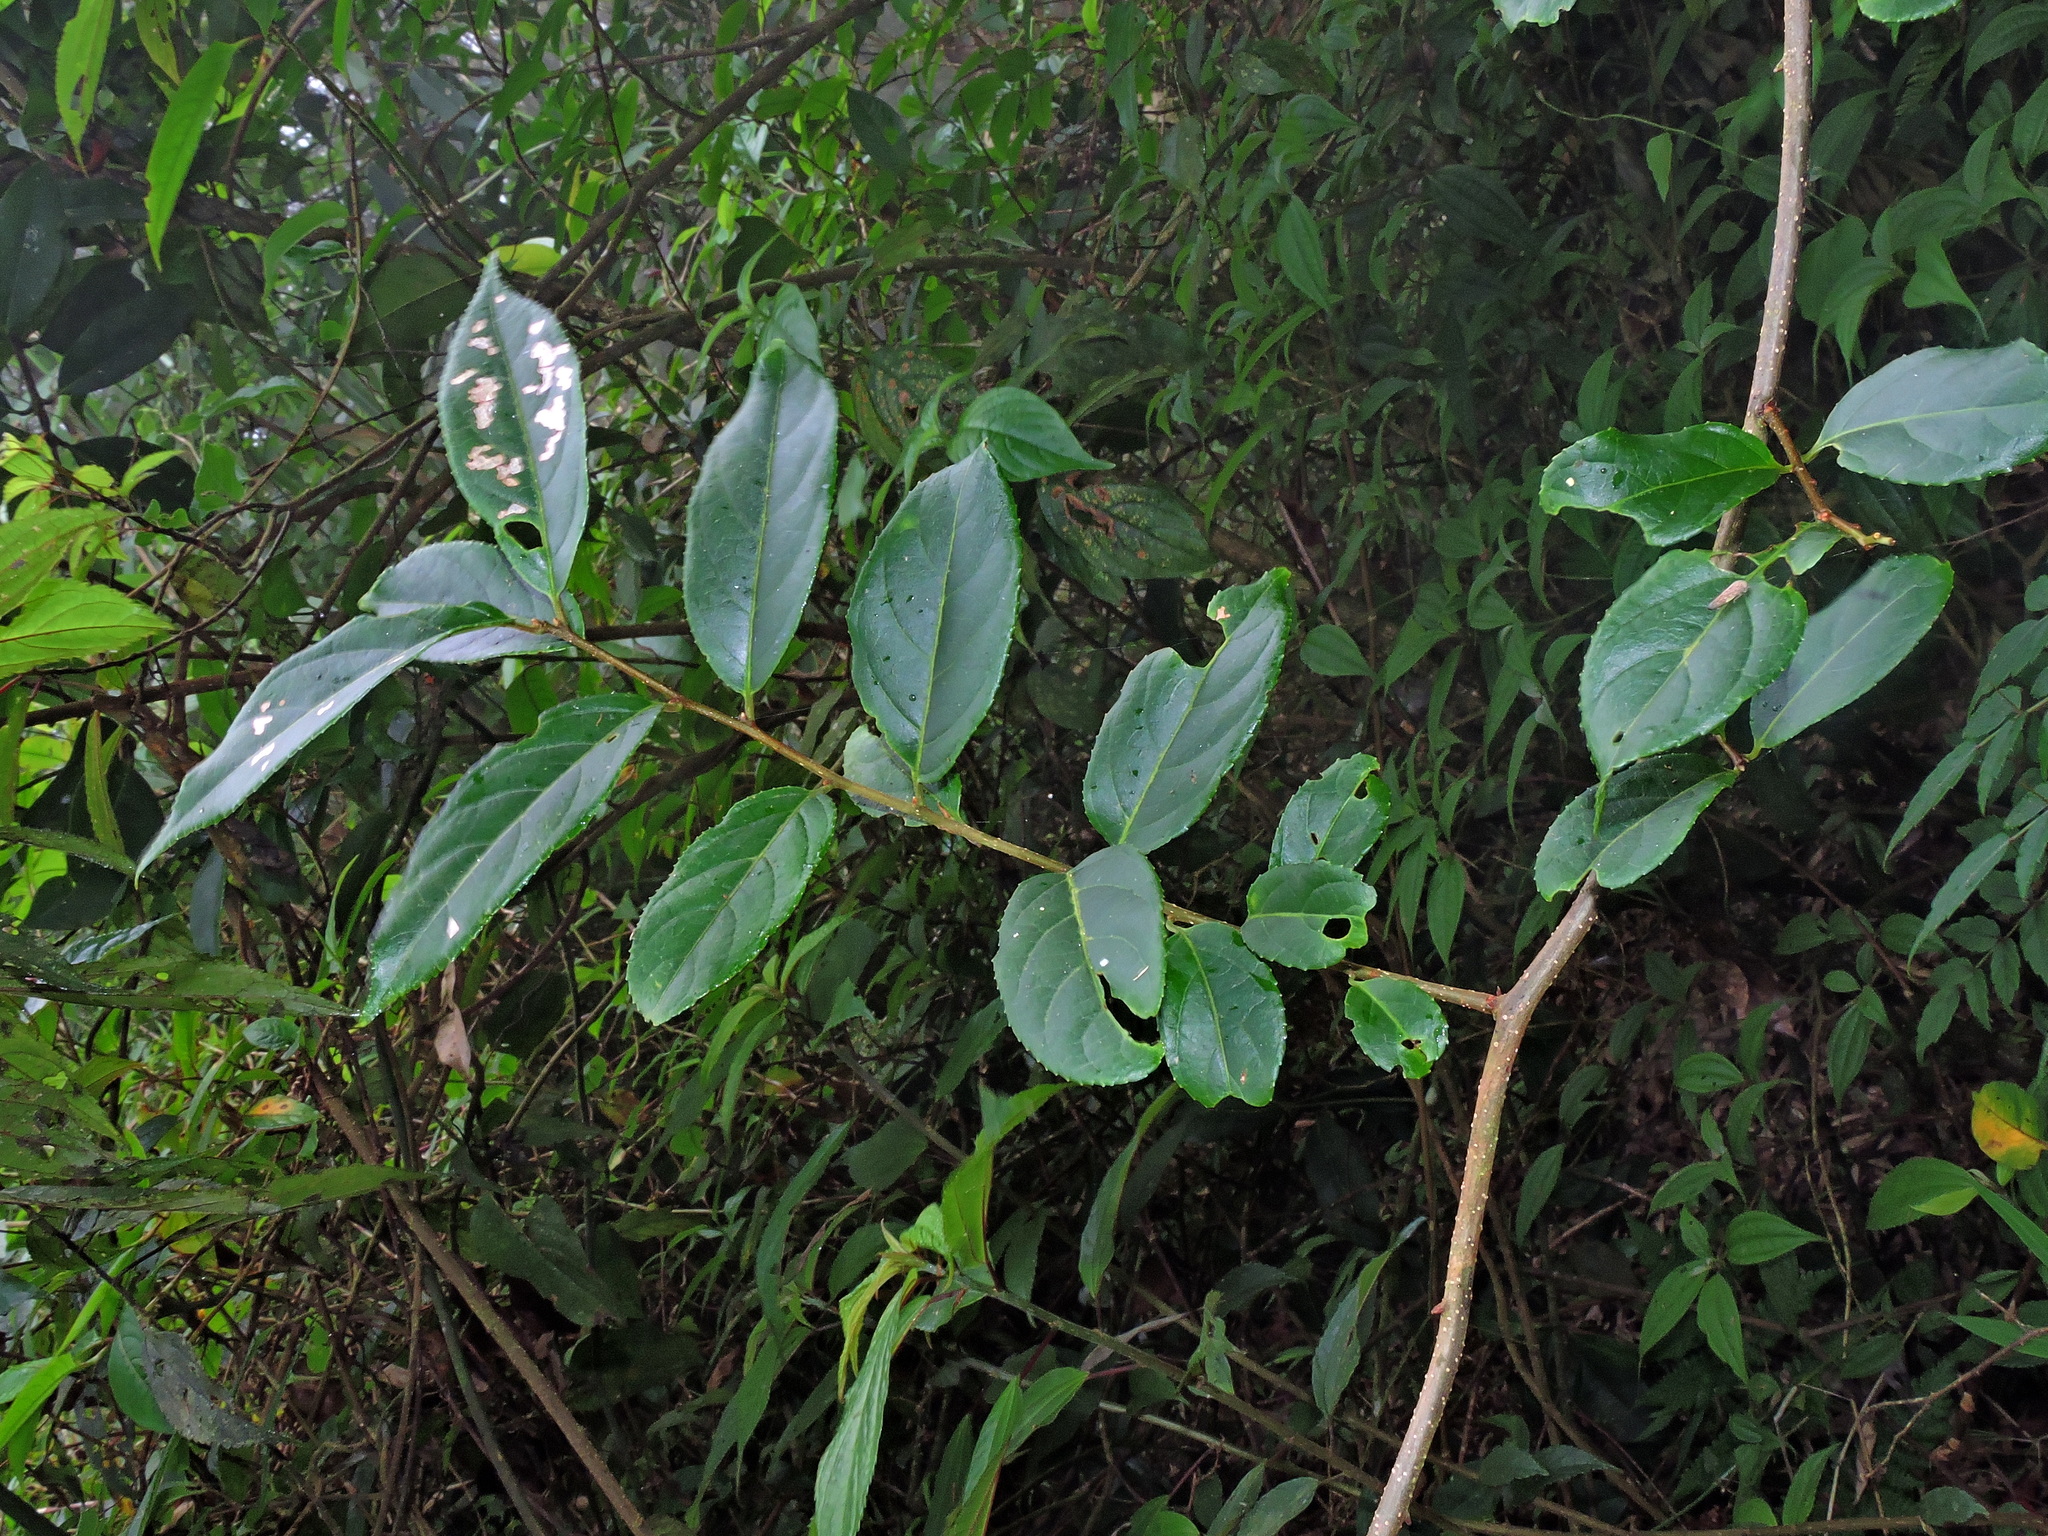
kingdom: Plantae
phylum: Tracheophyta
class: Magnoliopsida
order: Celastrales
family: Celastraceae
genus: Celastrus
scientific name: Celastrus punctatus
